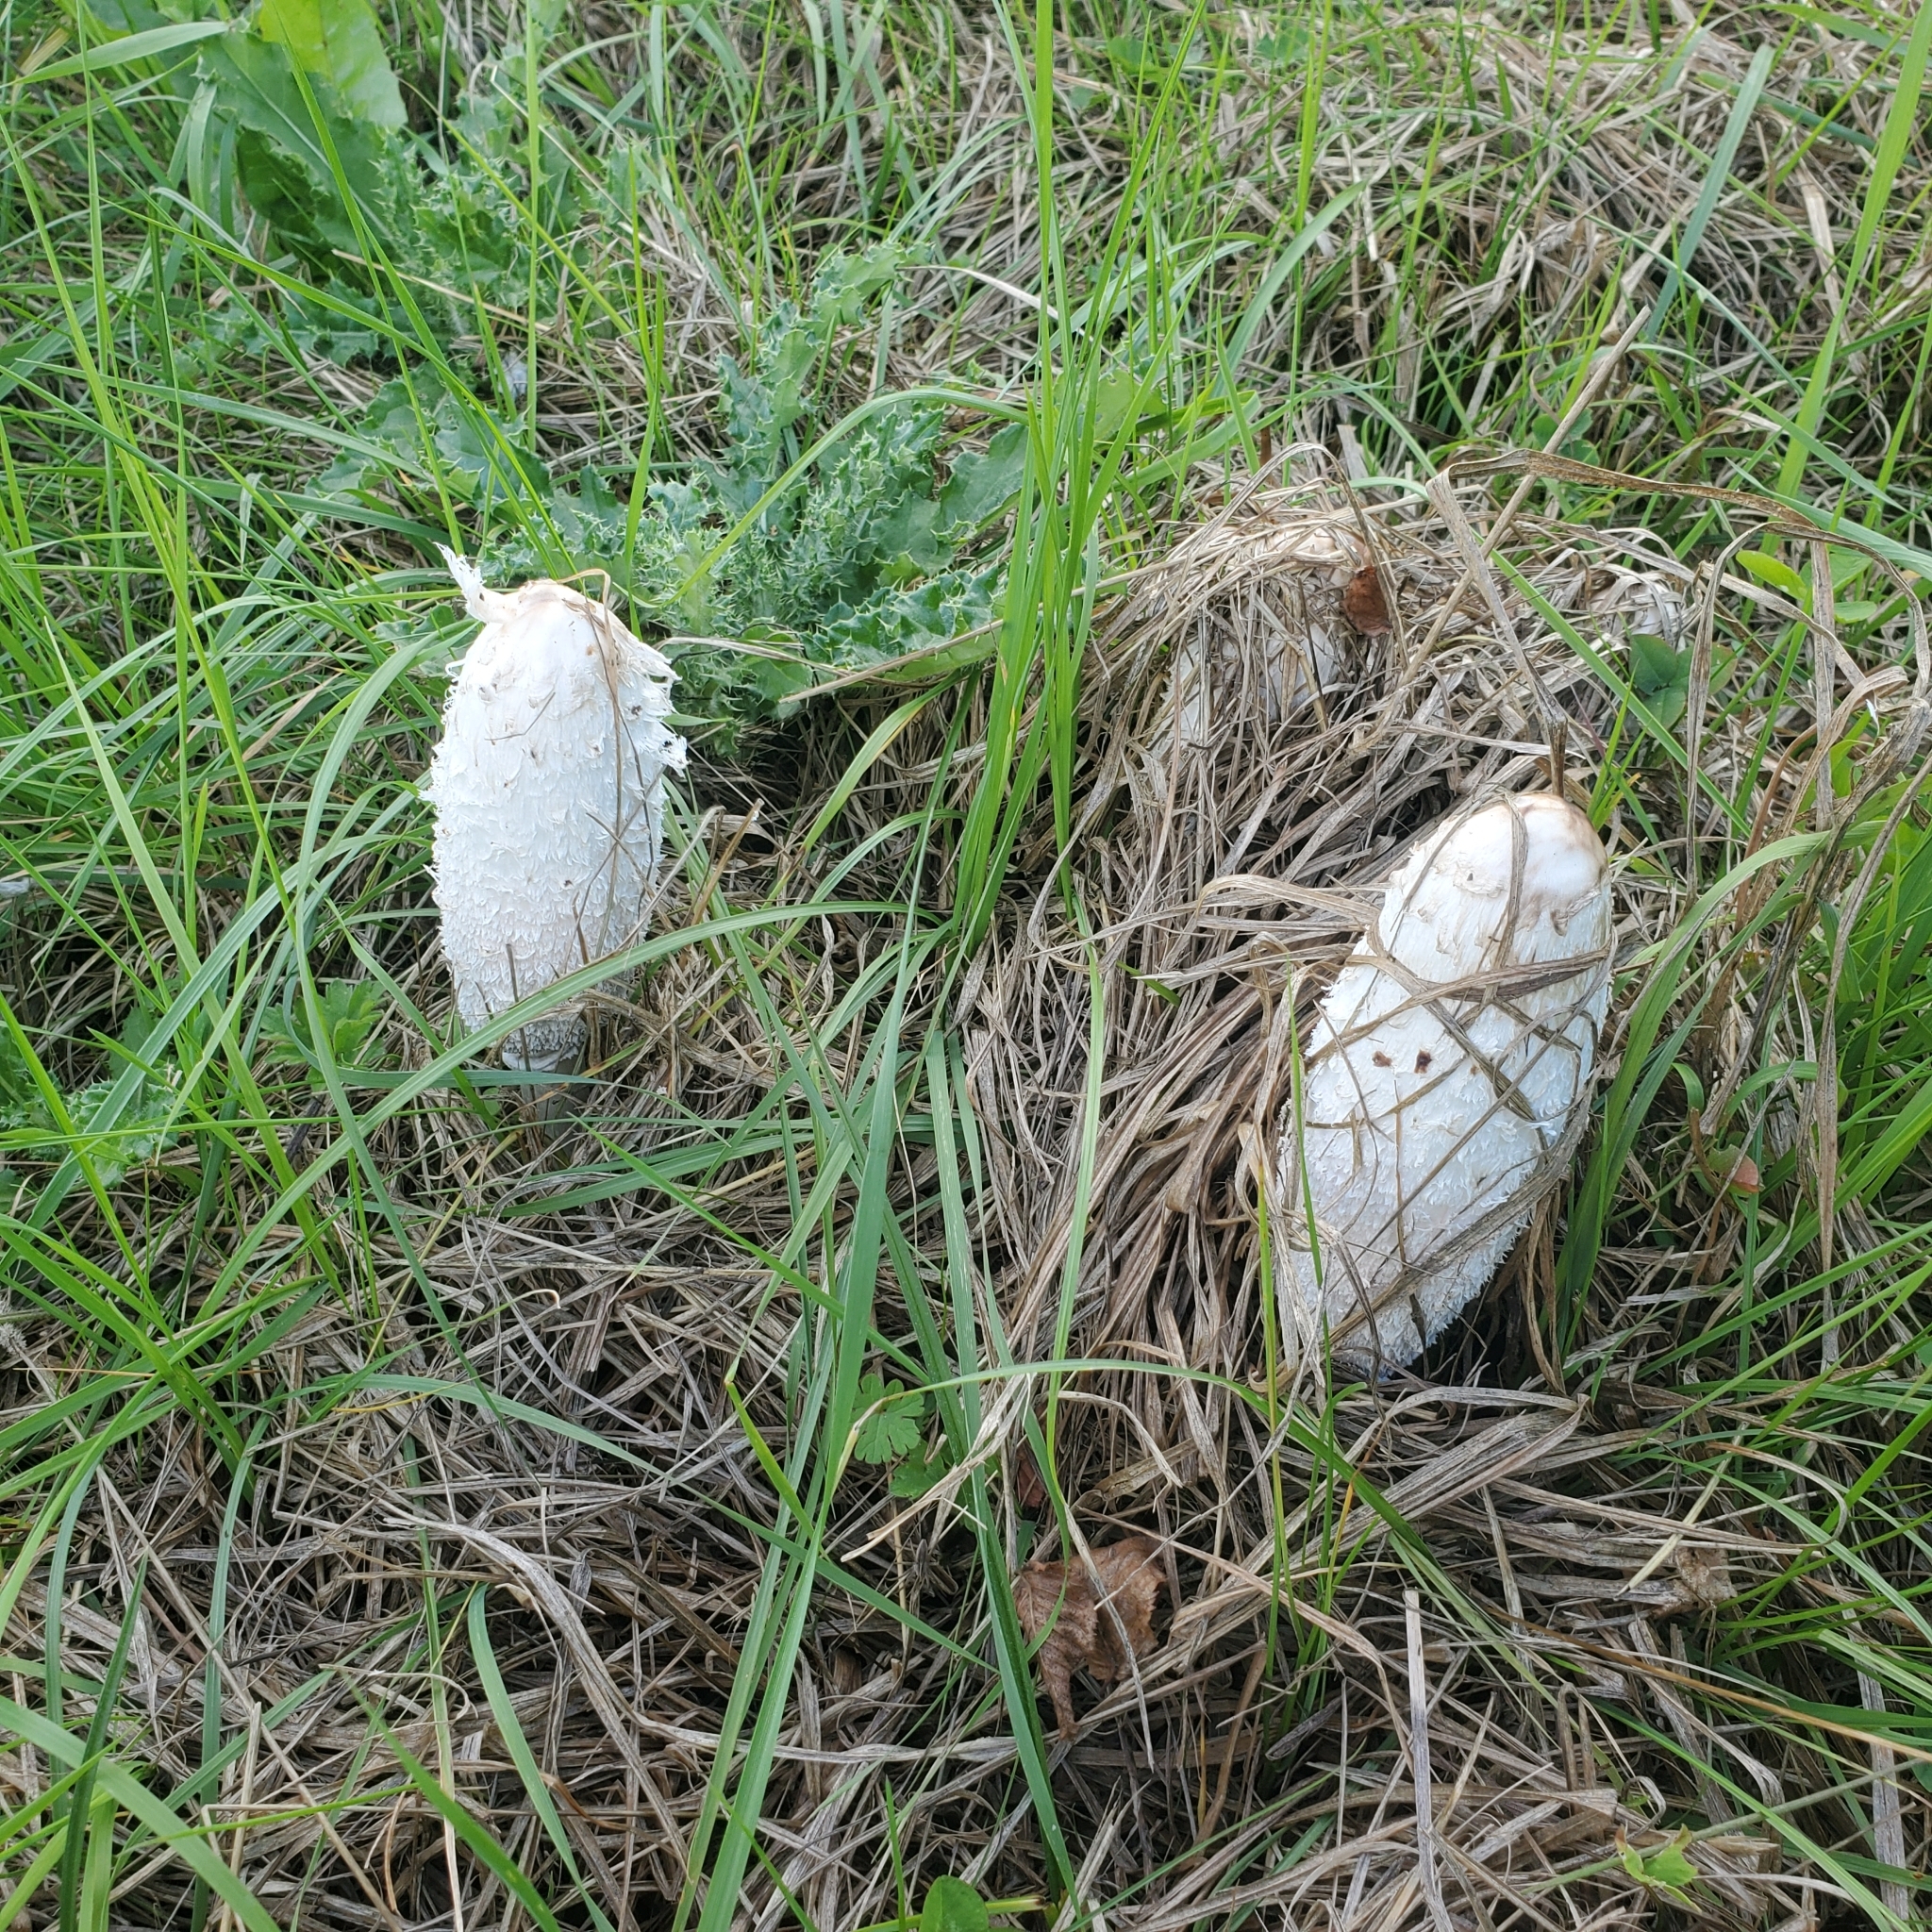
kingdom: Fungi
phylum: Basidiomycota
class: Agaricomycetes
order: Agaricales
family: Agaricaceae
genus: Coprinus
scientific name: Coprinus comatus
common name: Lawyer's wig
